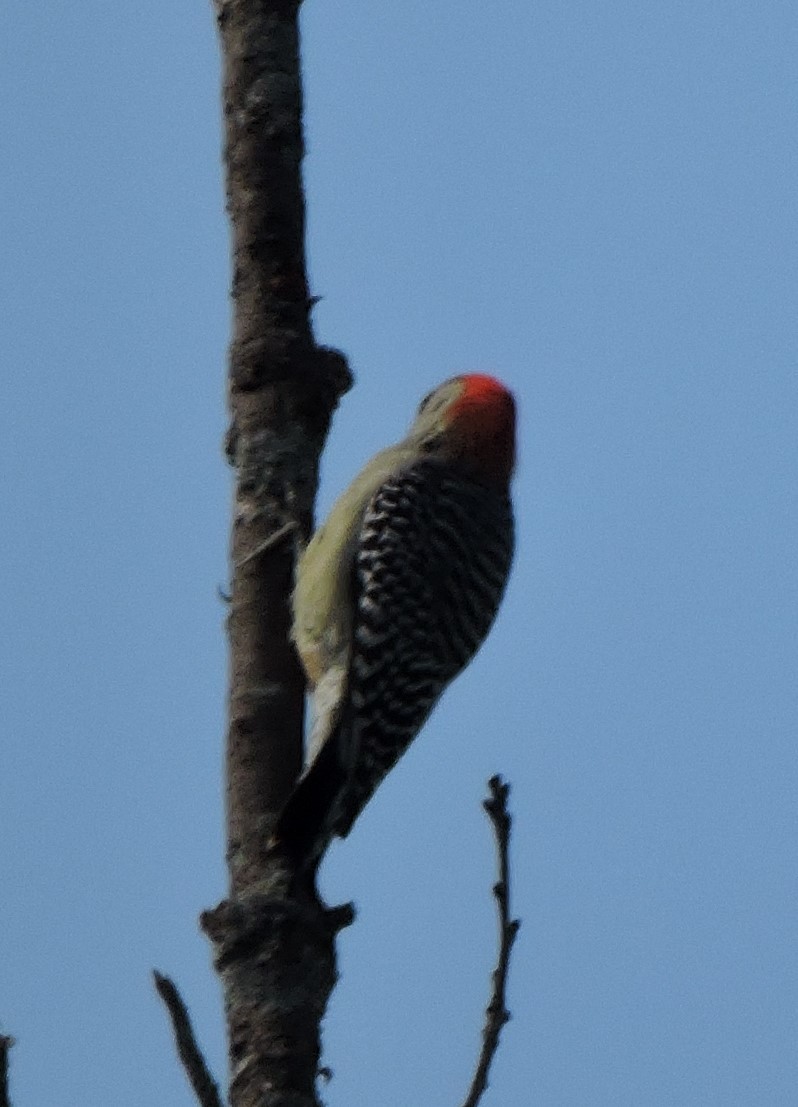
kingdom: Animalia
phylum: Chordata
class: Aves
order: Piciformes
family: Picidae
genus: Melanerpes
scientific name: Melanerpes carolinus
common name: Red-bellied woodpecker
